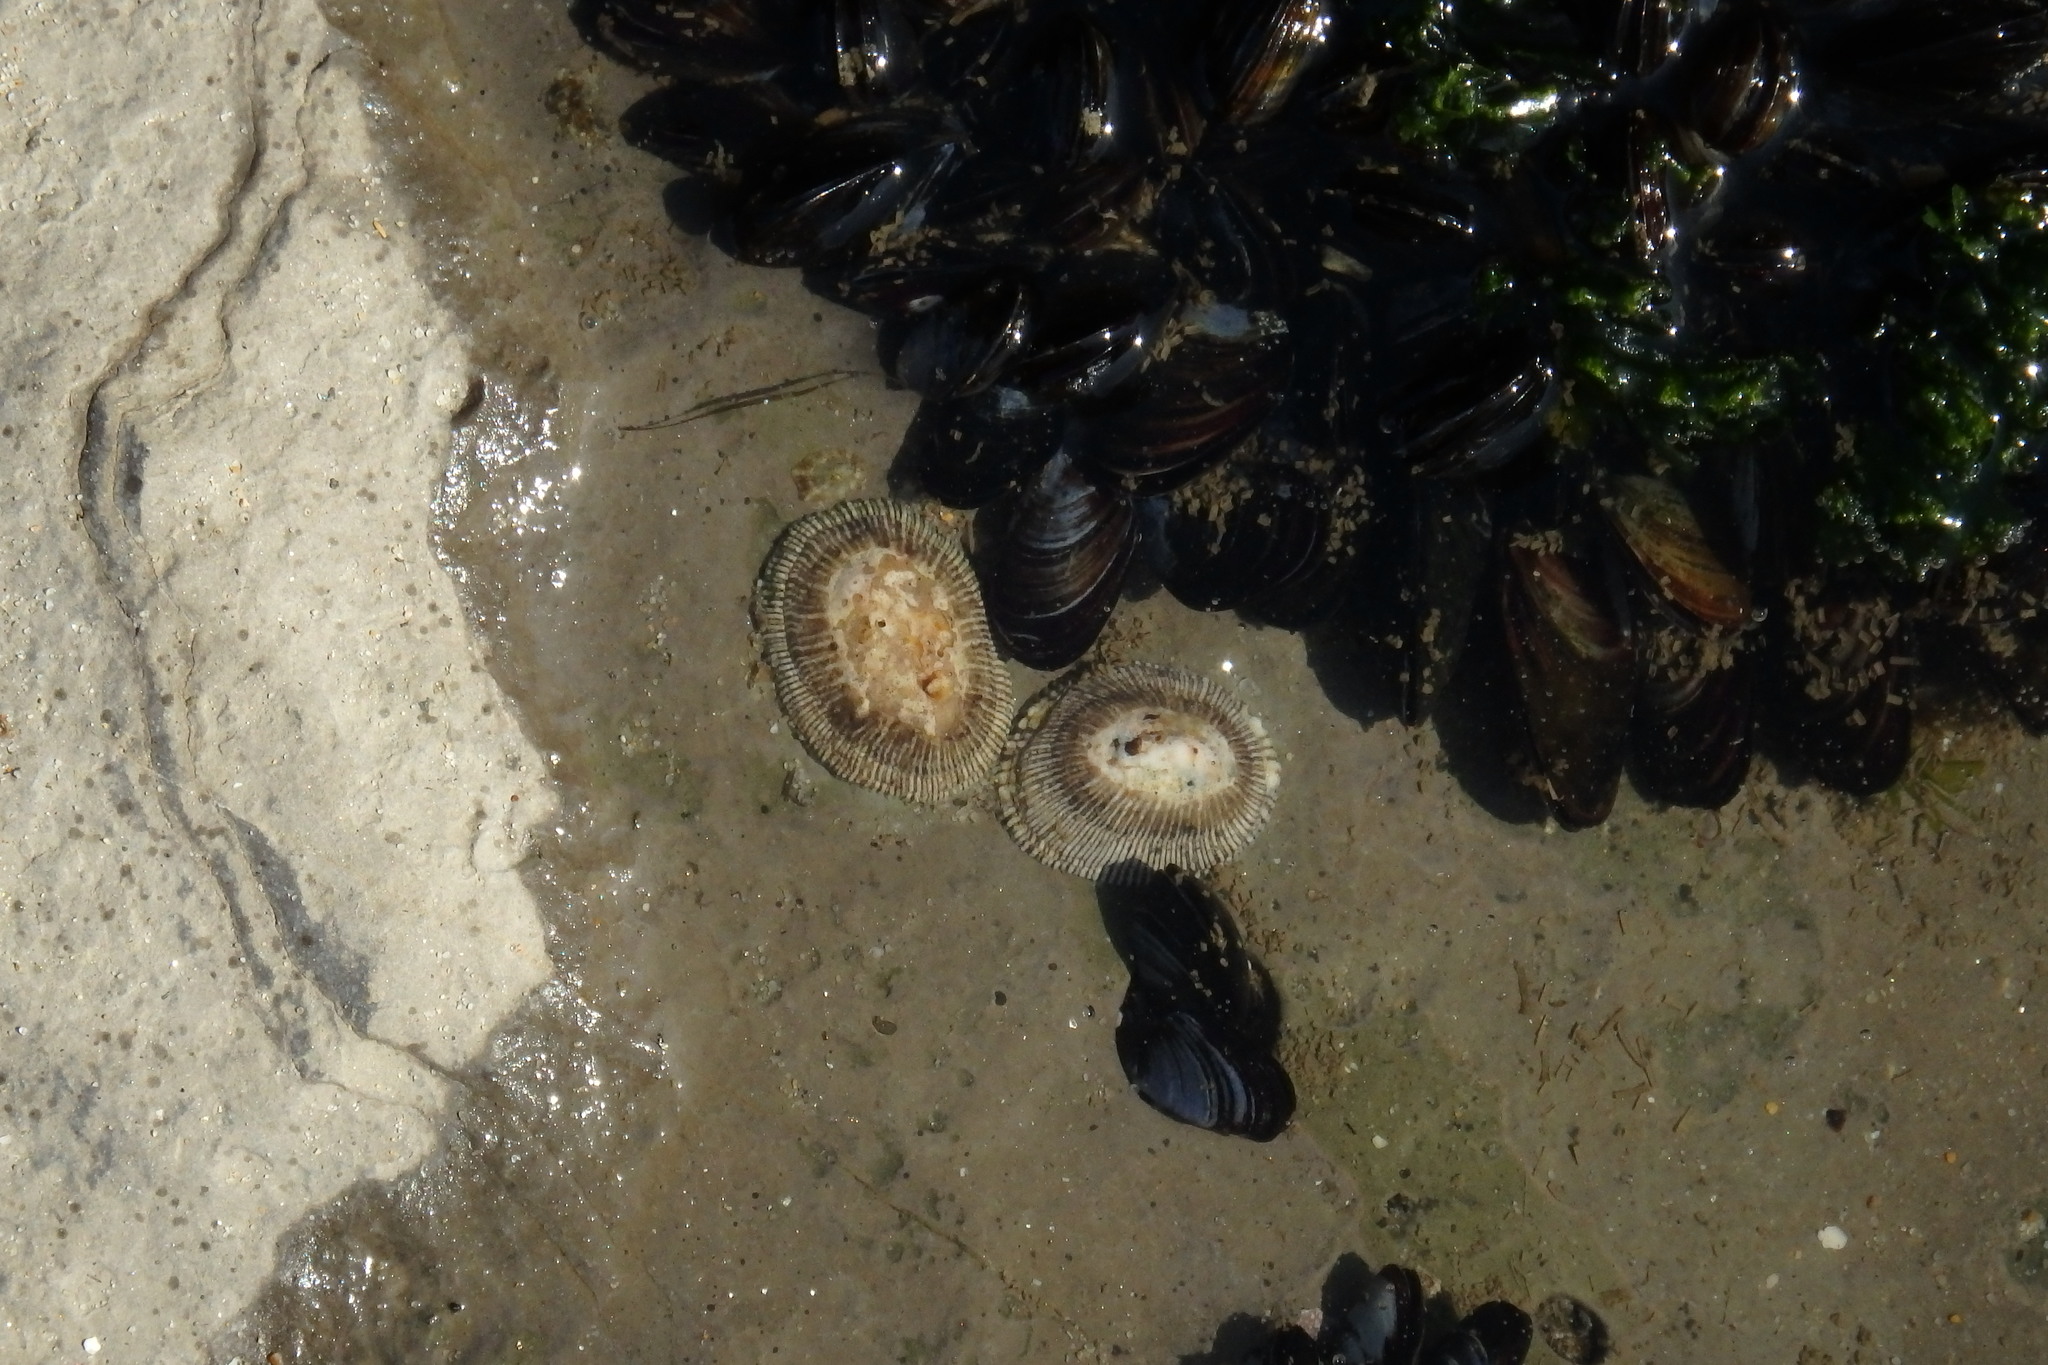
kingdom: Animalia
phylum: Mollusca
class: Gastropoda
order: Siphonariida
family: Siphonariidae
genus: Siphonaria
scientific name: Siphonaria pectinata
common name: Striped false limpet
